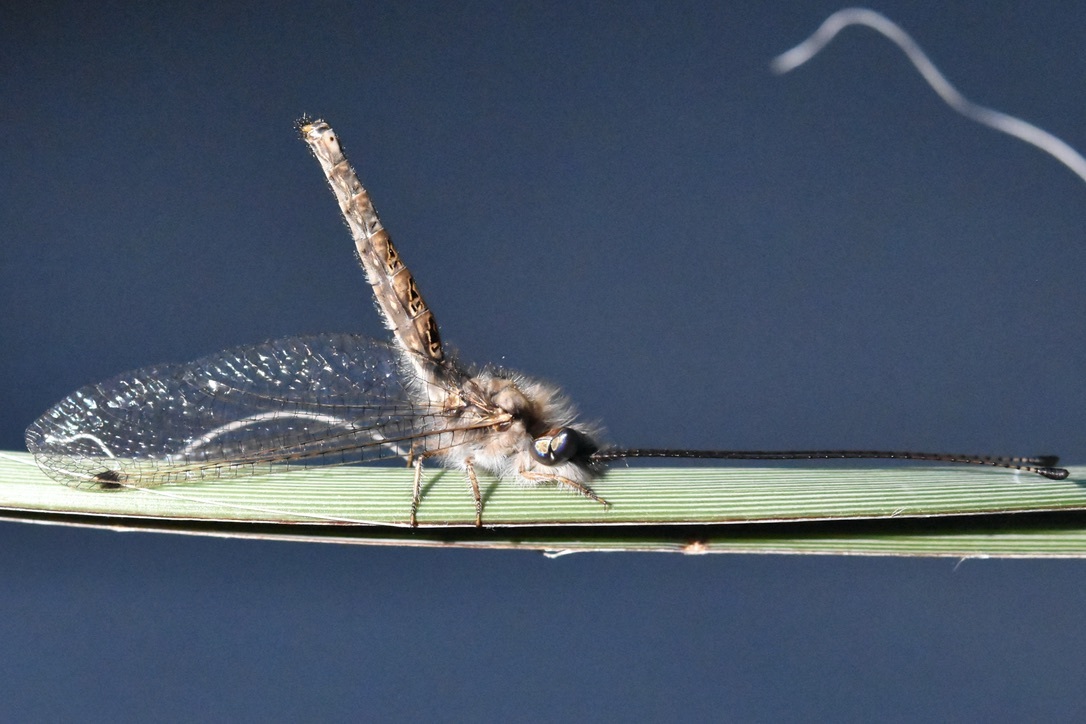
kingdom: Animalia
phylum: Arthropoda
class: Insecta
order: Neuroptera
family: Ascalaphidae
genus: Ululodes
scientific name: Ululodes macleayanus
